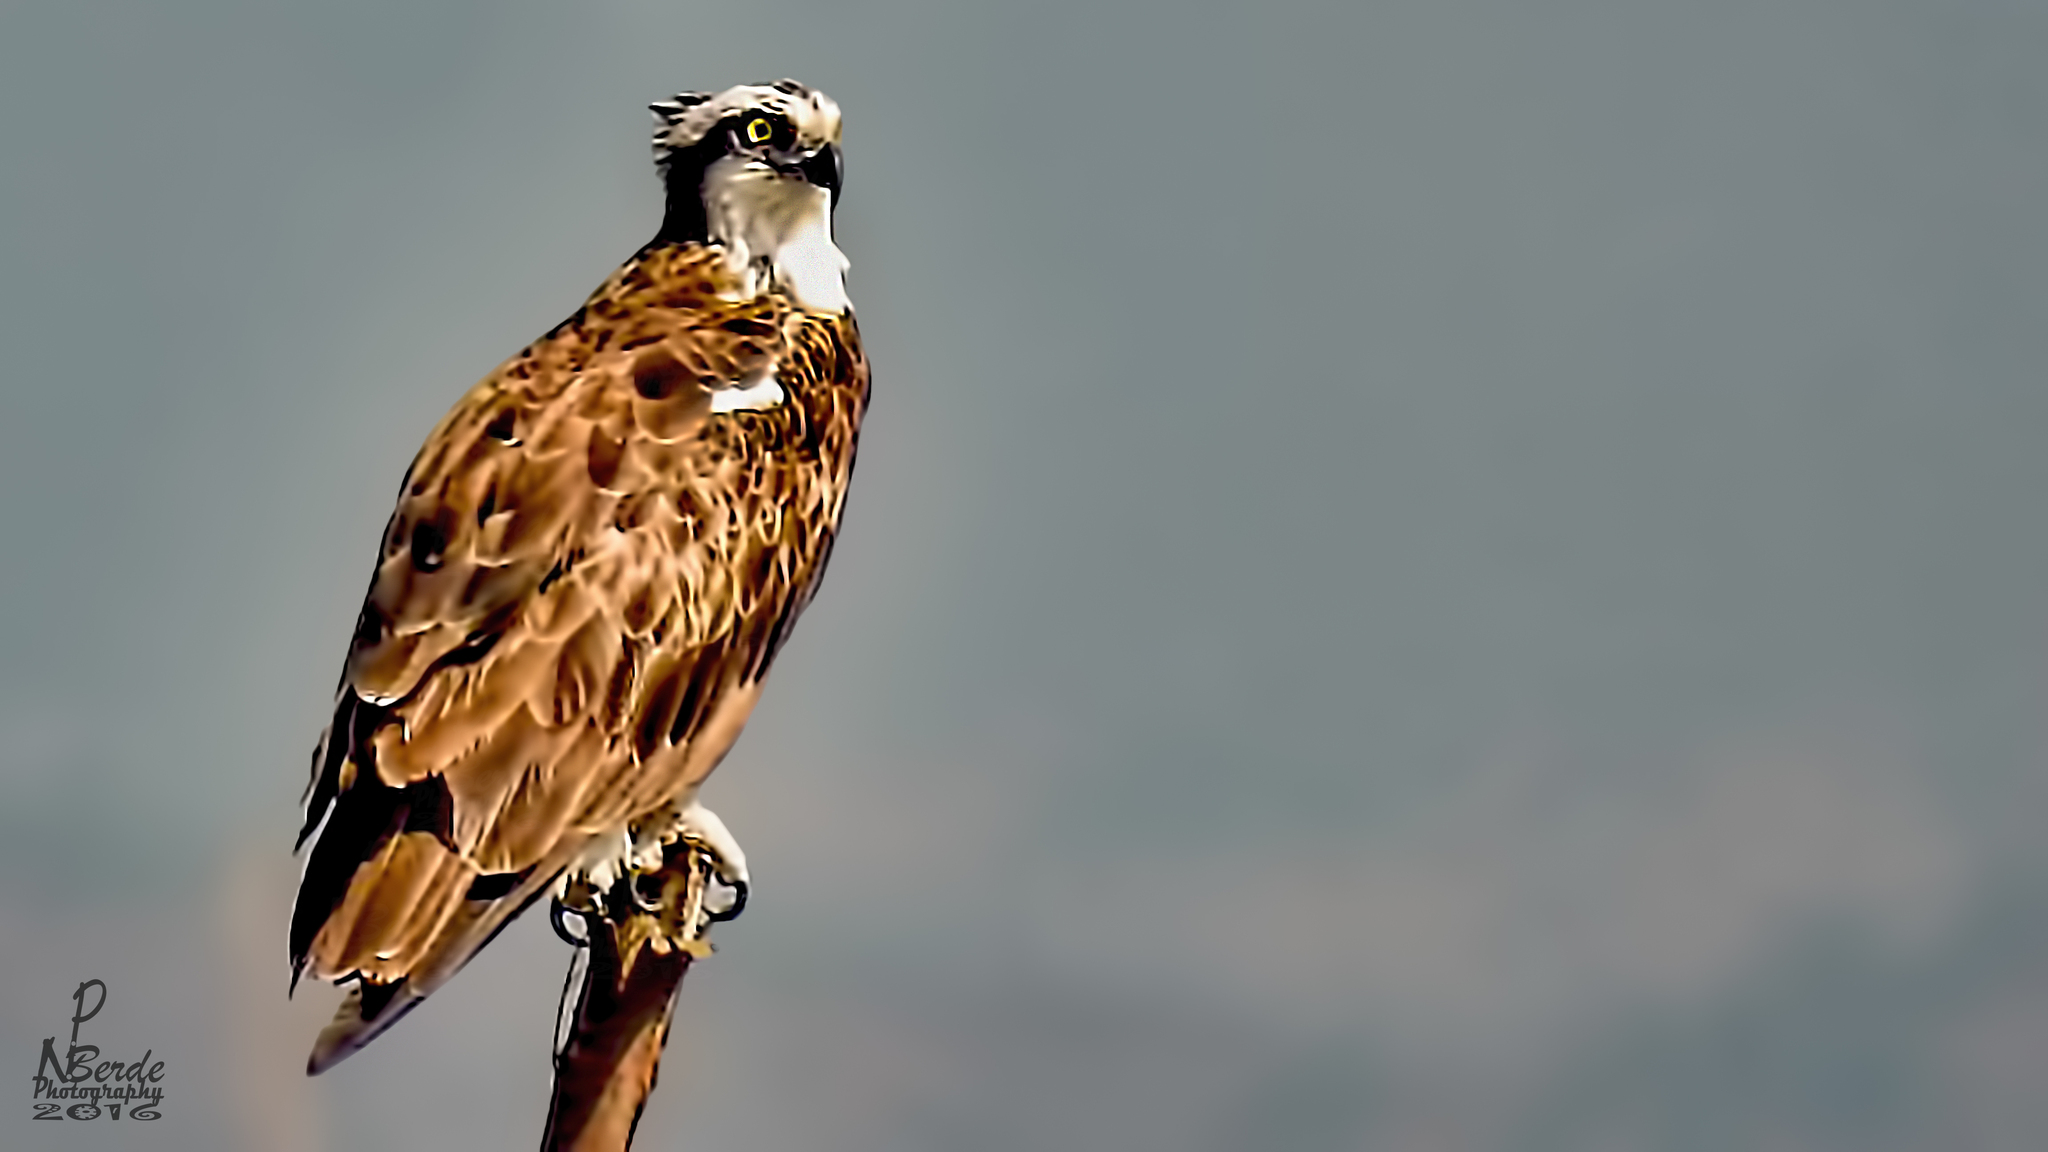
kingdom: Animalia
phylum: Chordata
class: Aves
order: Accipitriformes
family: Pandionidae
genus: Pandion
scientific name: Pandion haliaetus
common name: Osprey
